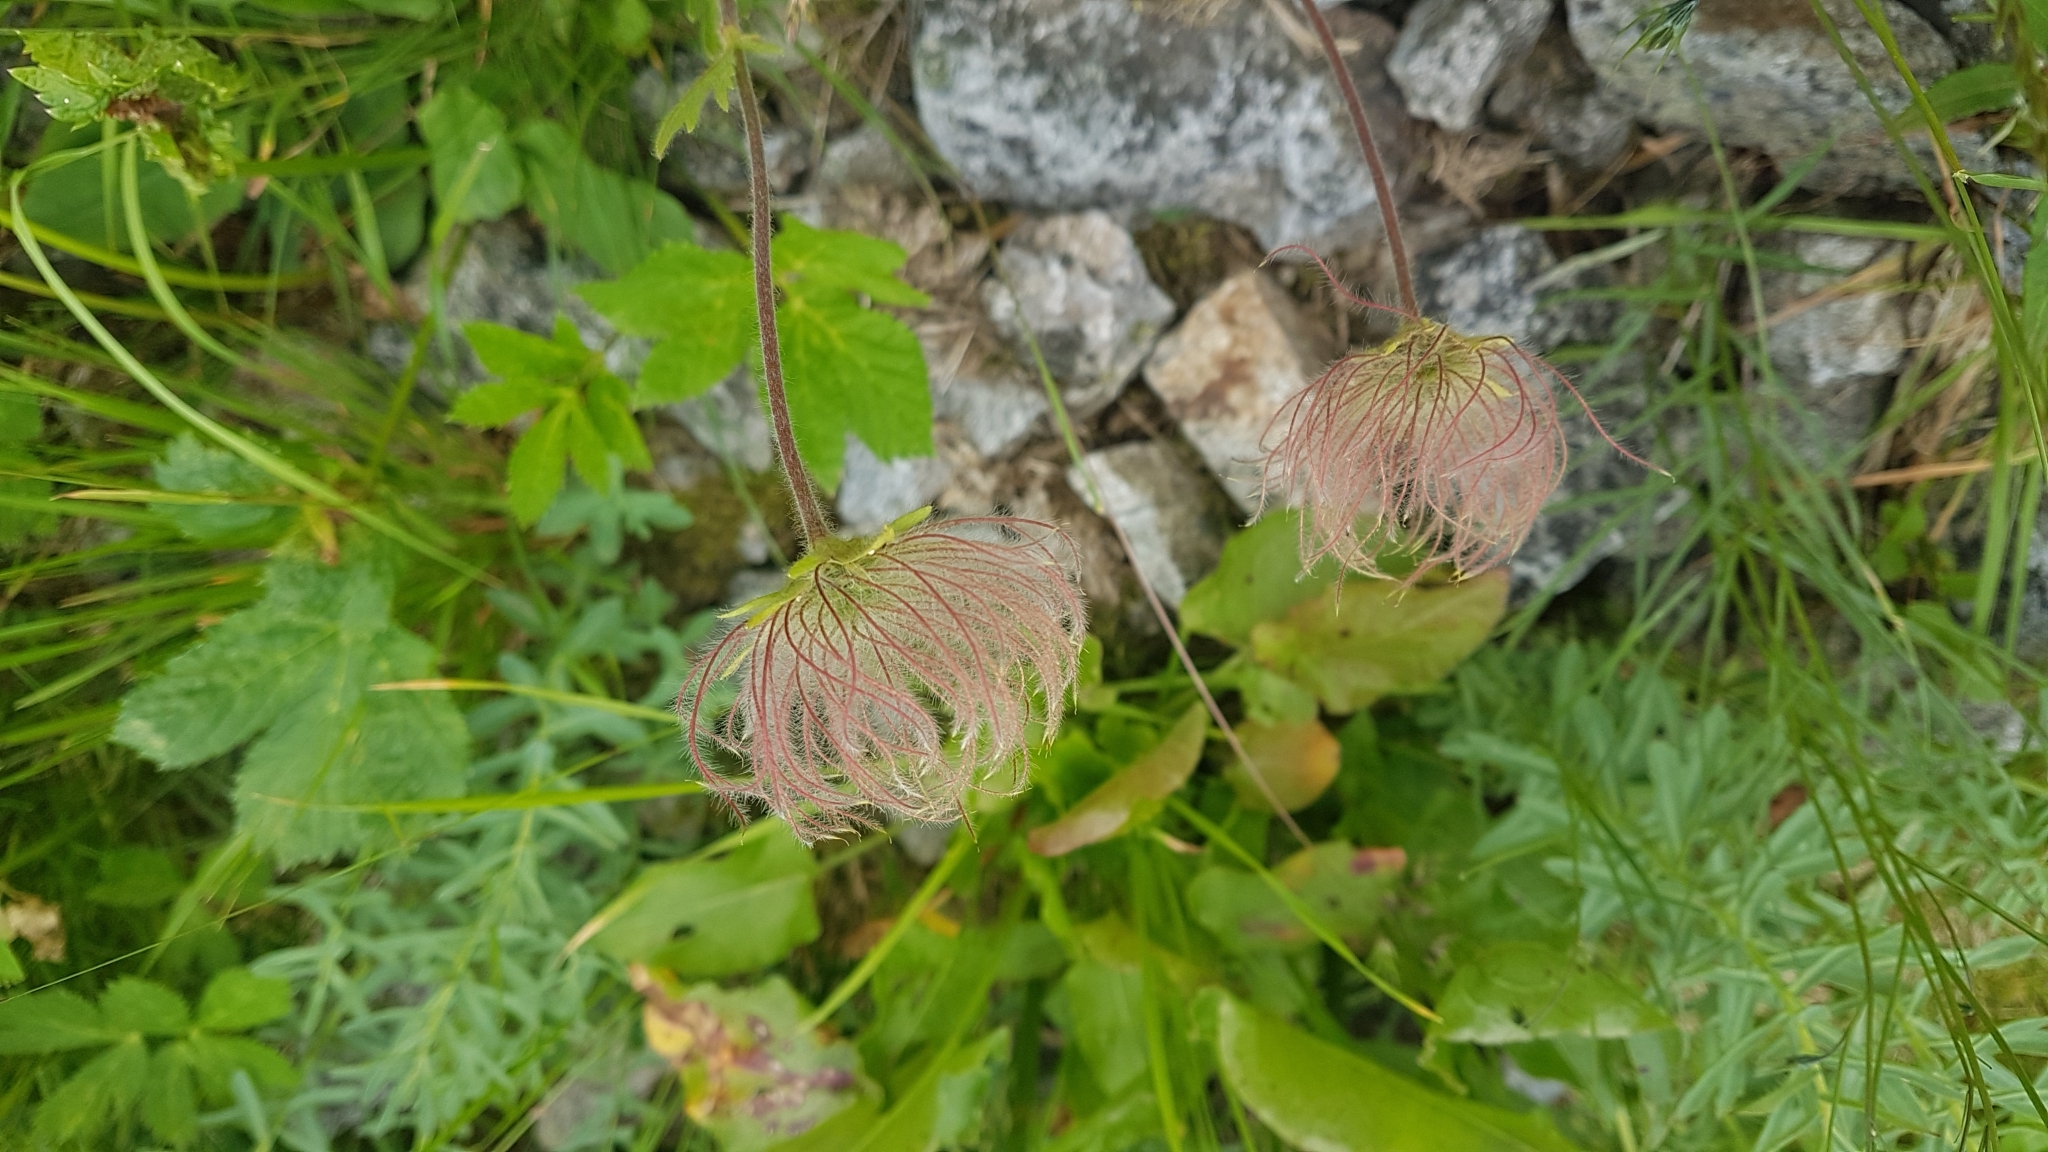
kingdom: Plantae
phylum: Tracheophyta
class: Magnoliopsida
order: Rosales
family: Rosaceae
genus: Geum
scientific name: Geum montanum
